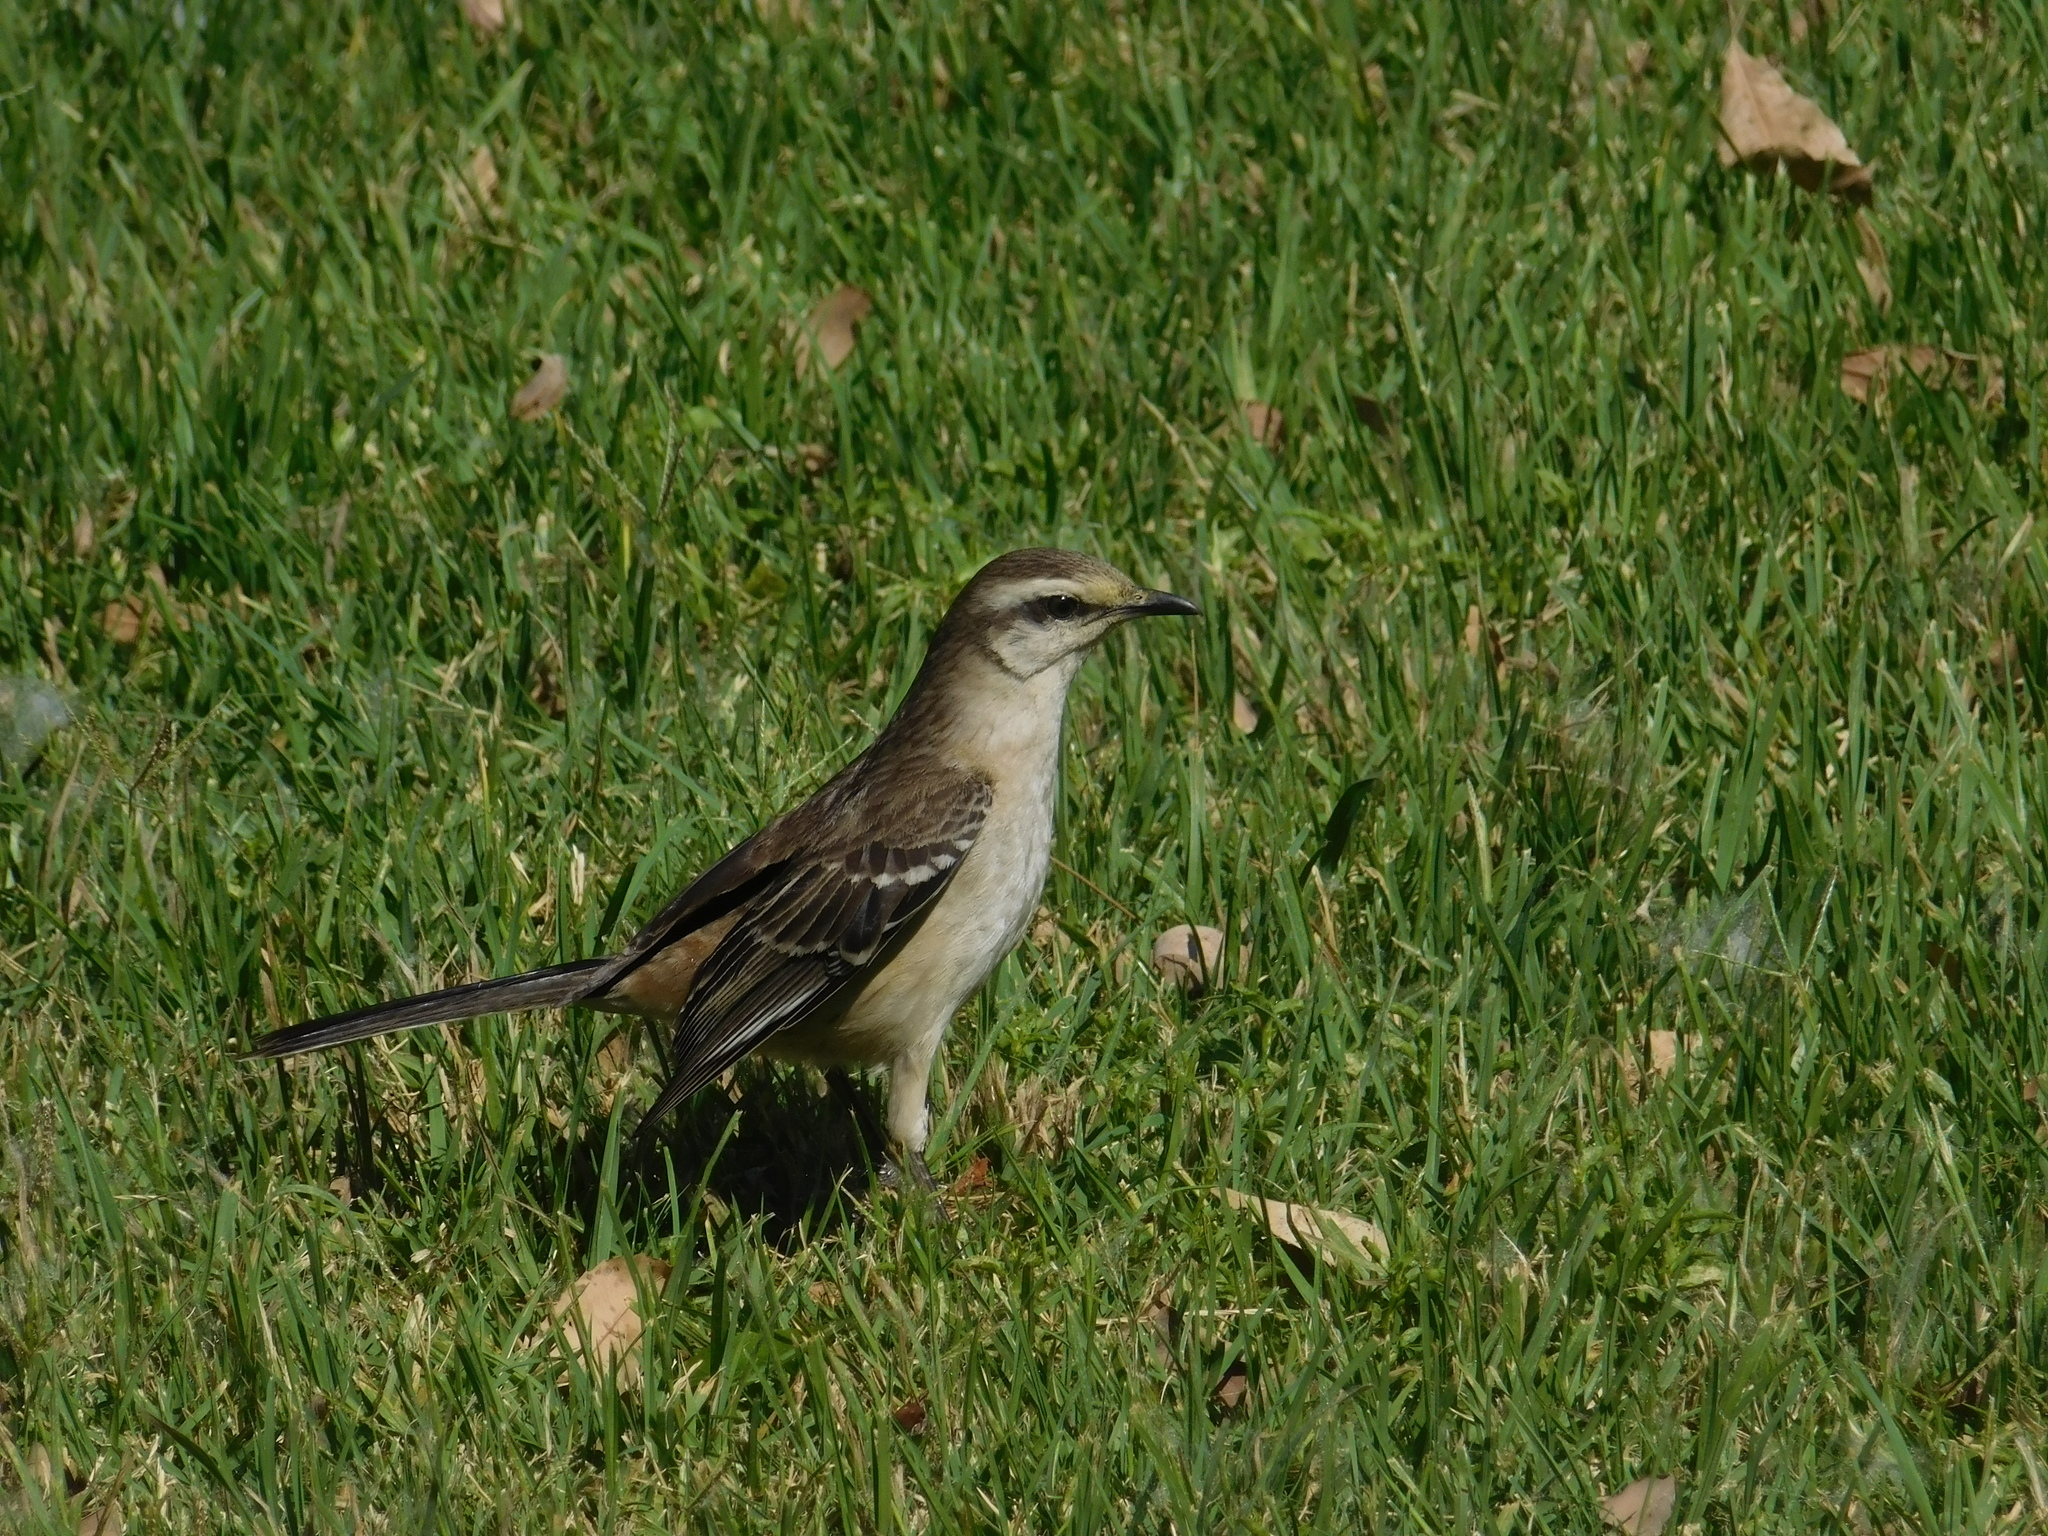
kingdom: Animalia
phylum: Chordata
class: Aves
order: Passeriformes
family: Mimidae
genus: Mimus
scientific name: Mimus saturninus
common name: Chalk-browed mockingbird
